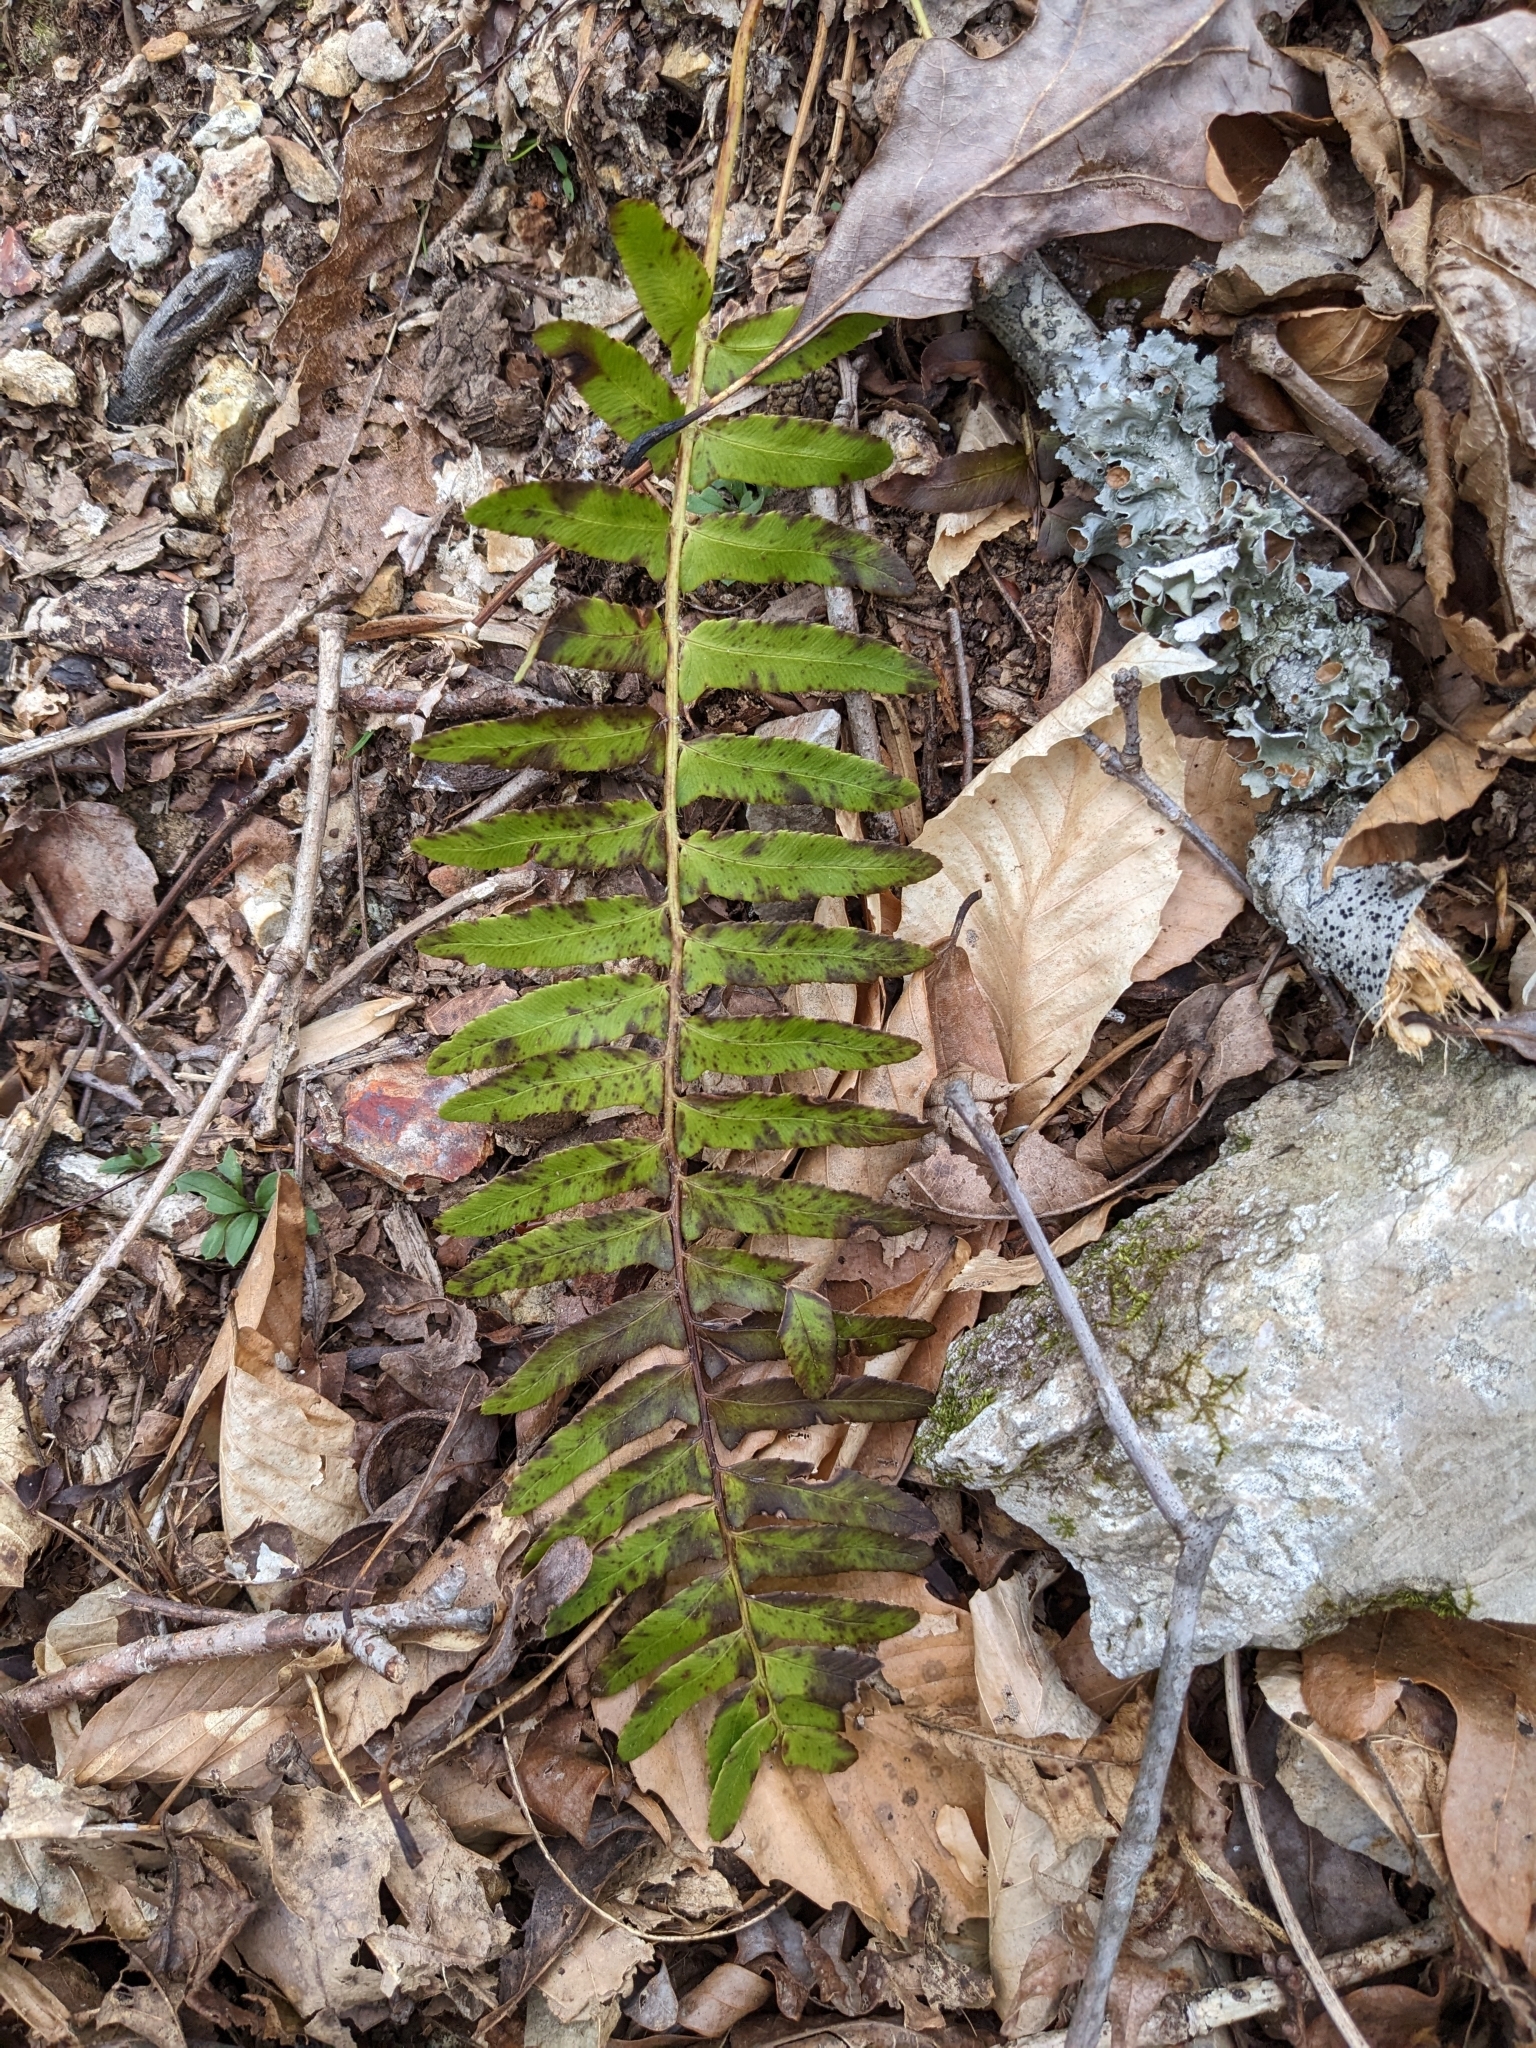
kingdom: Plantae
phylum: Tracheophyta
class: Polypodiopsida
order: Polypodiales
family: Dryopteridaceae
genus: Polystichum
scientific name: Polystichum acrostichoides
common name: Christmas fern
